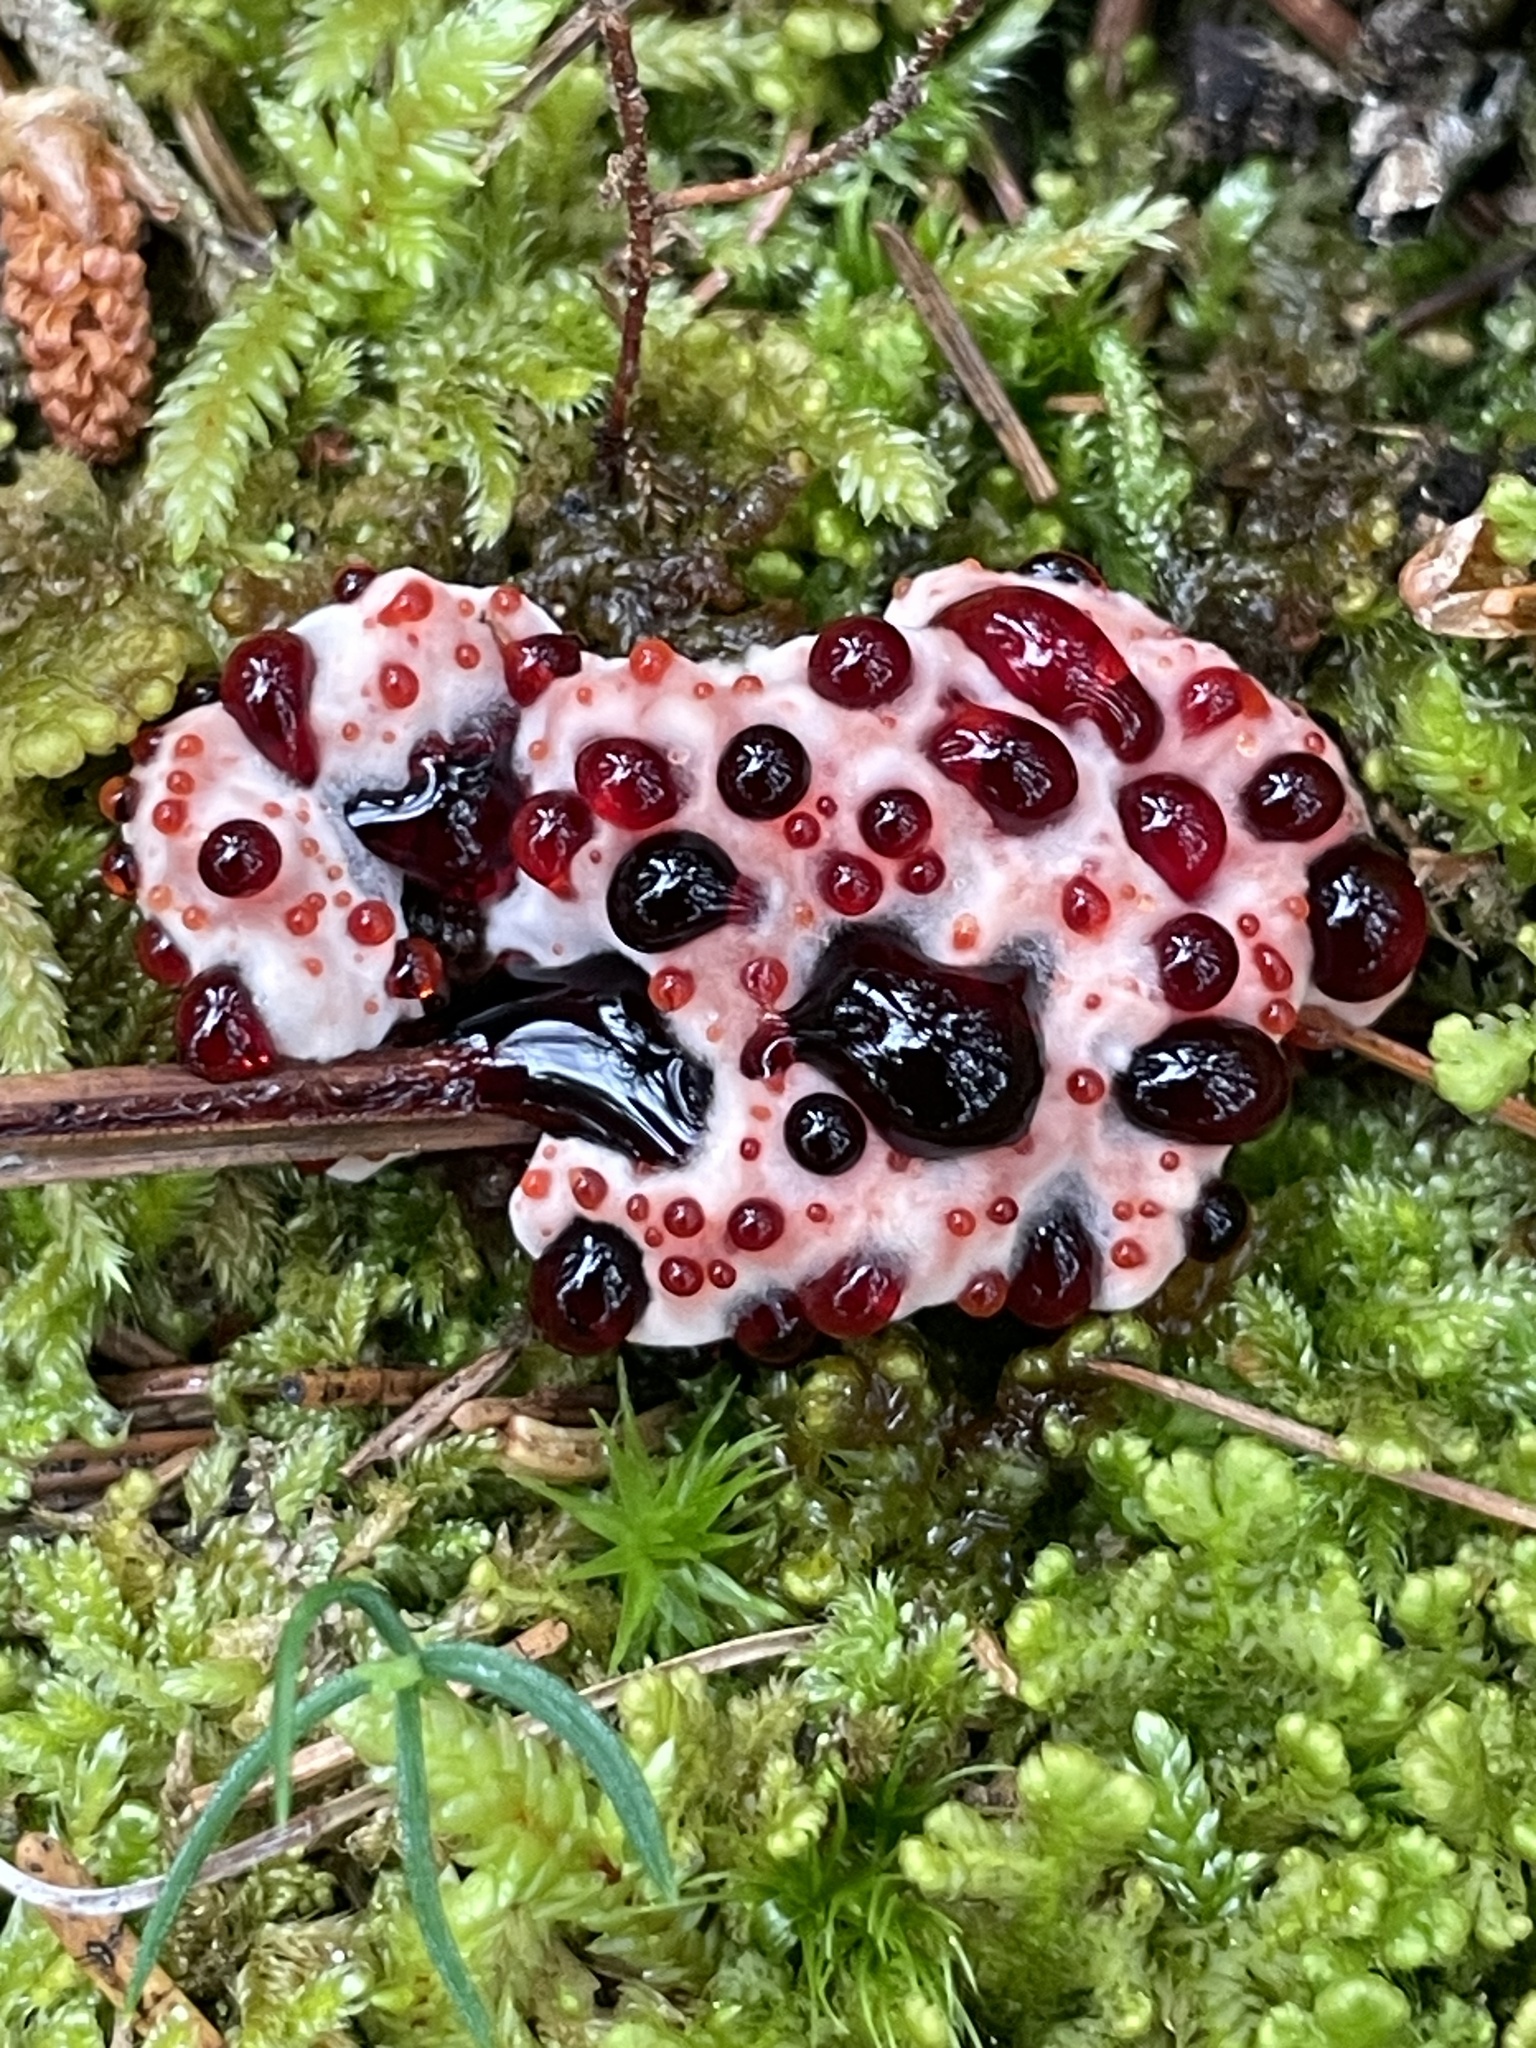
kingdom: Fungi
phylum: Basidiomycota
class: Agaricomycetes
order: Thelephorales
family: Bankeraceae
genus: Hydnellum
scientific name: Hydnellum peckii
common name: Devil's tooth
